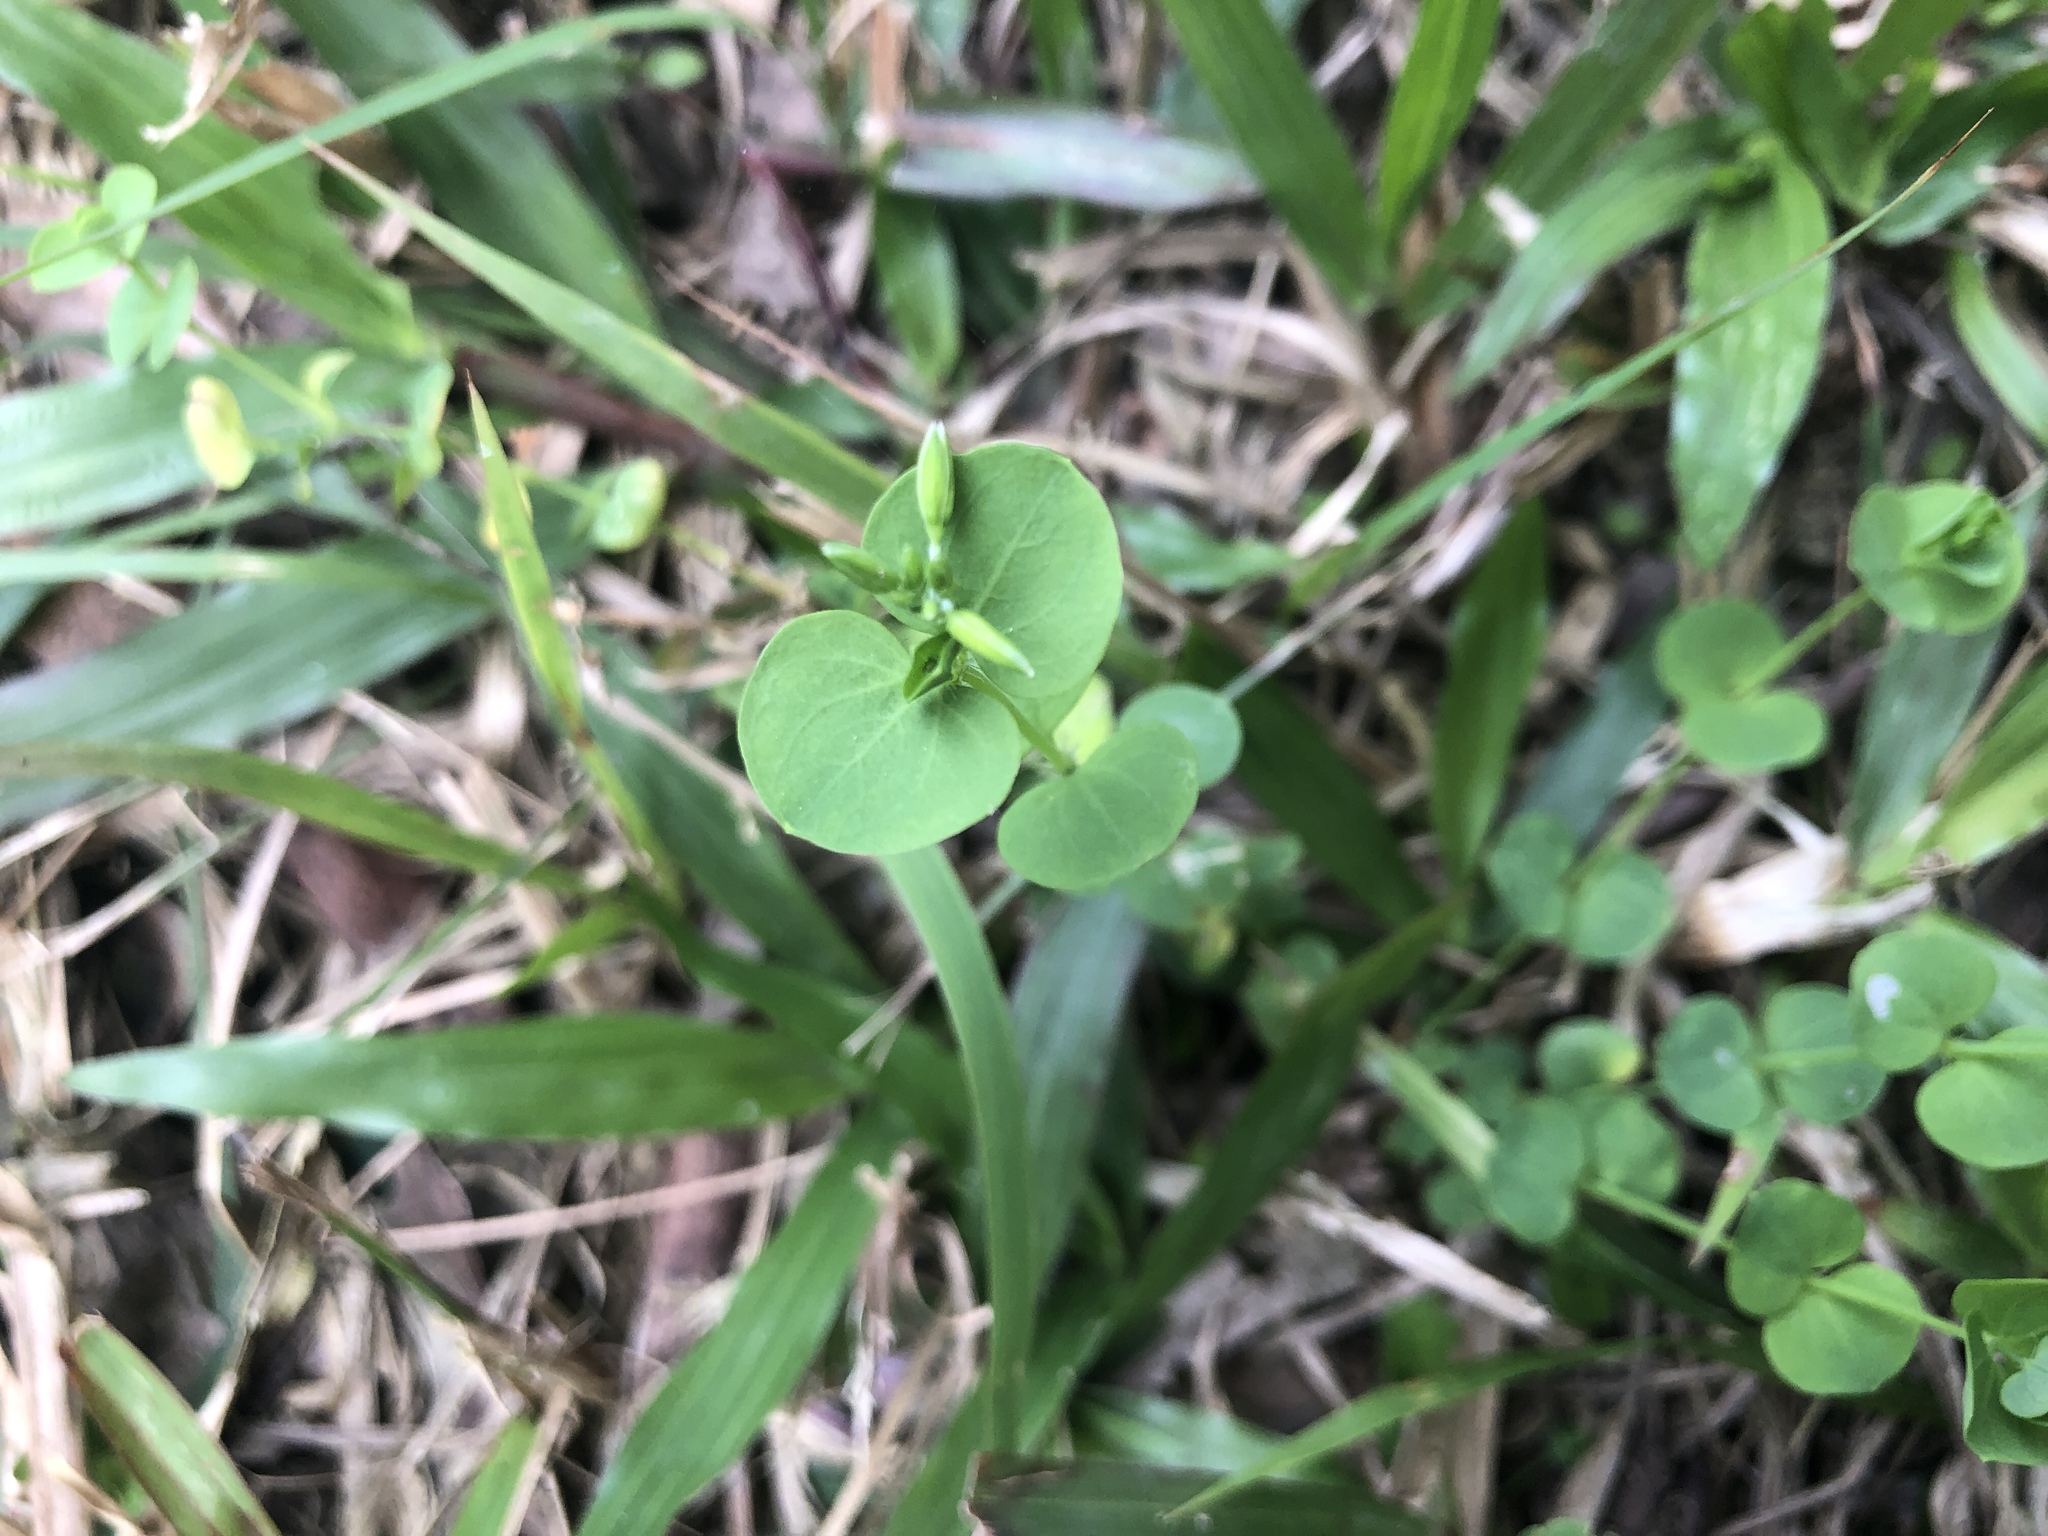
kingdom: Plantae
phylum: Tracheophyta
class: Magnoliopsida
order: Caryophyllales
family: Caryophyllaceae
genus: Drymaria
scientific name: Drymaria cordata
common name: Whitesnow
